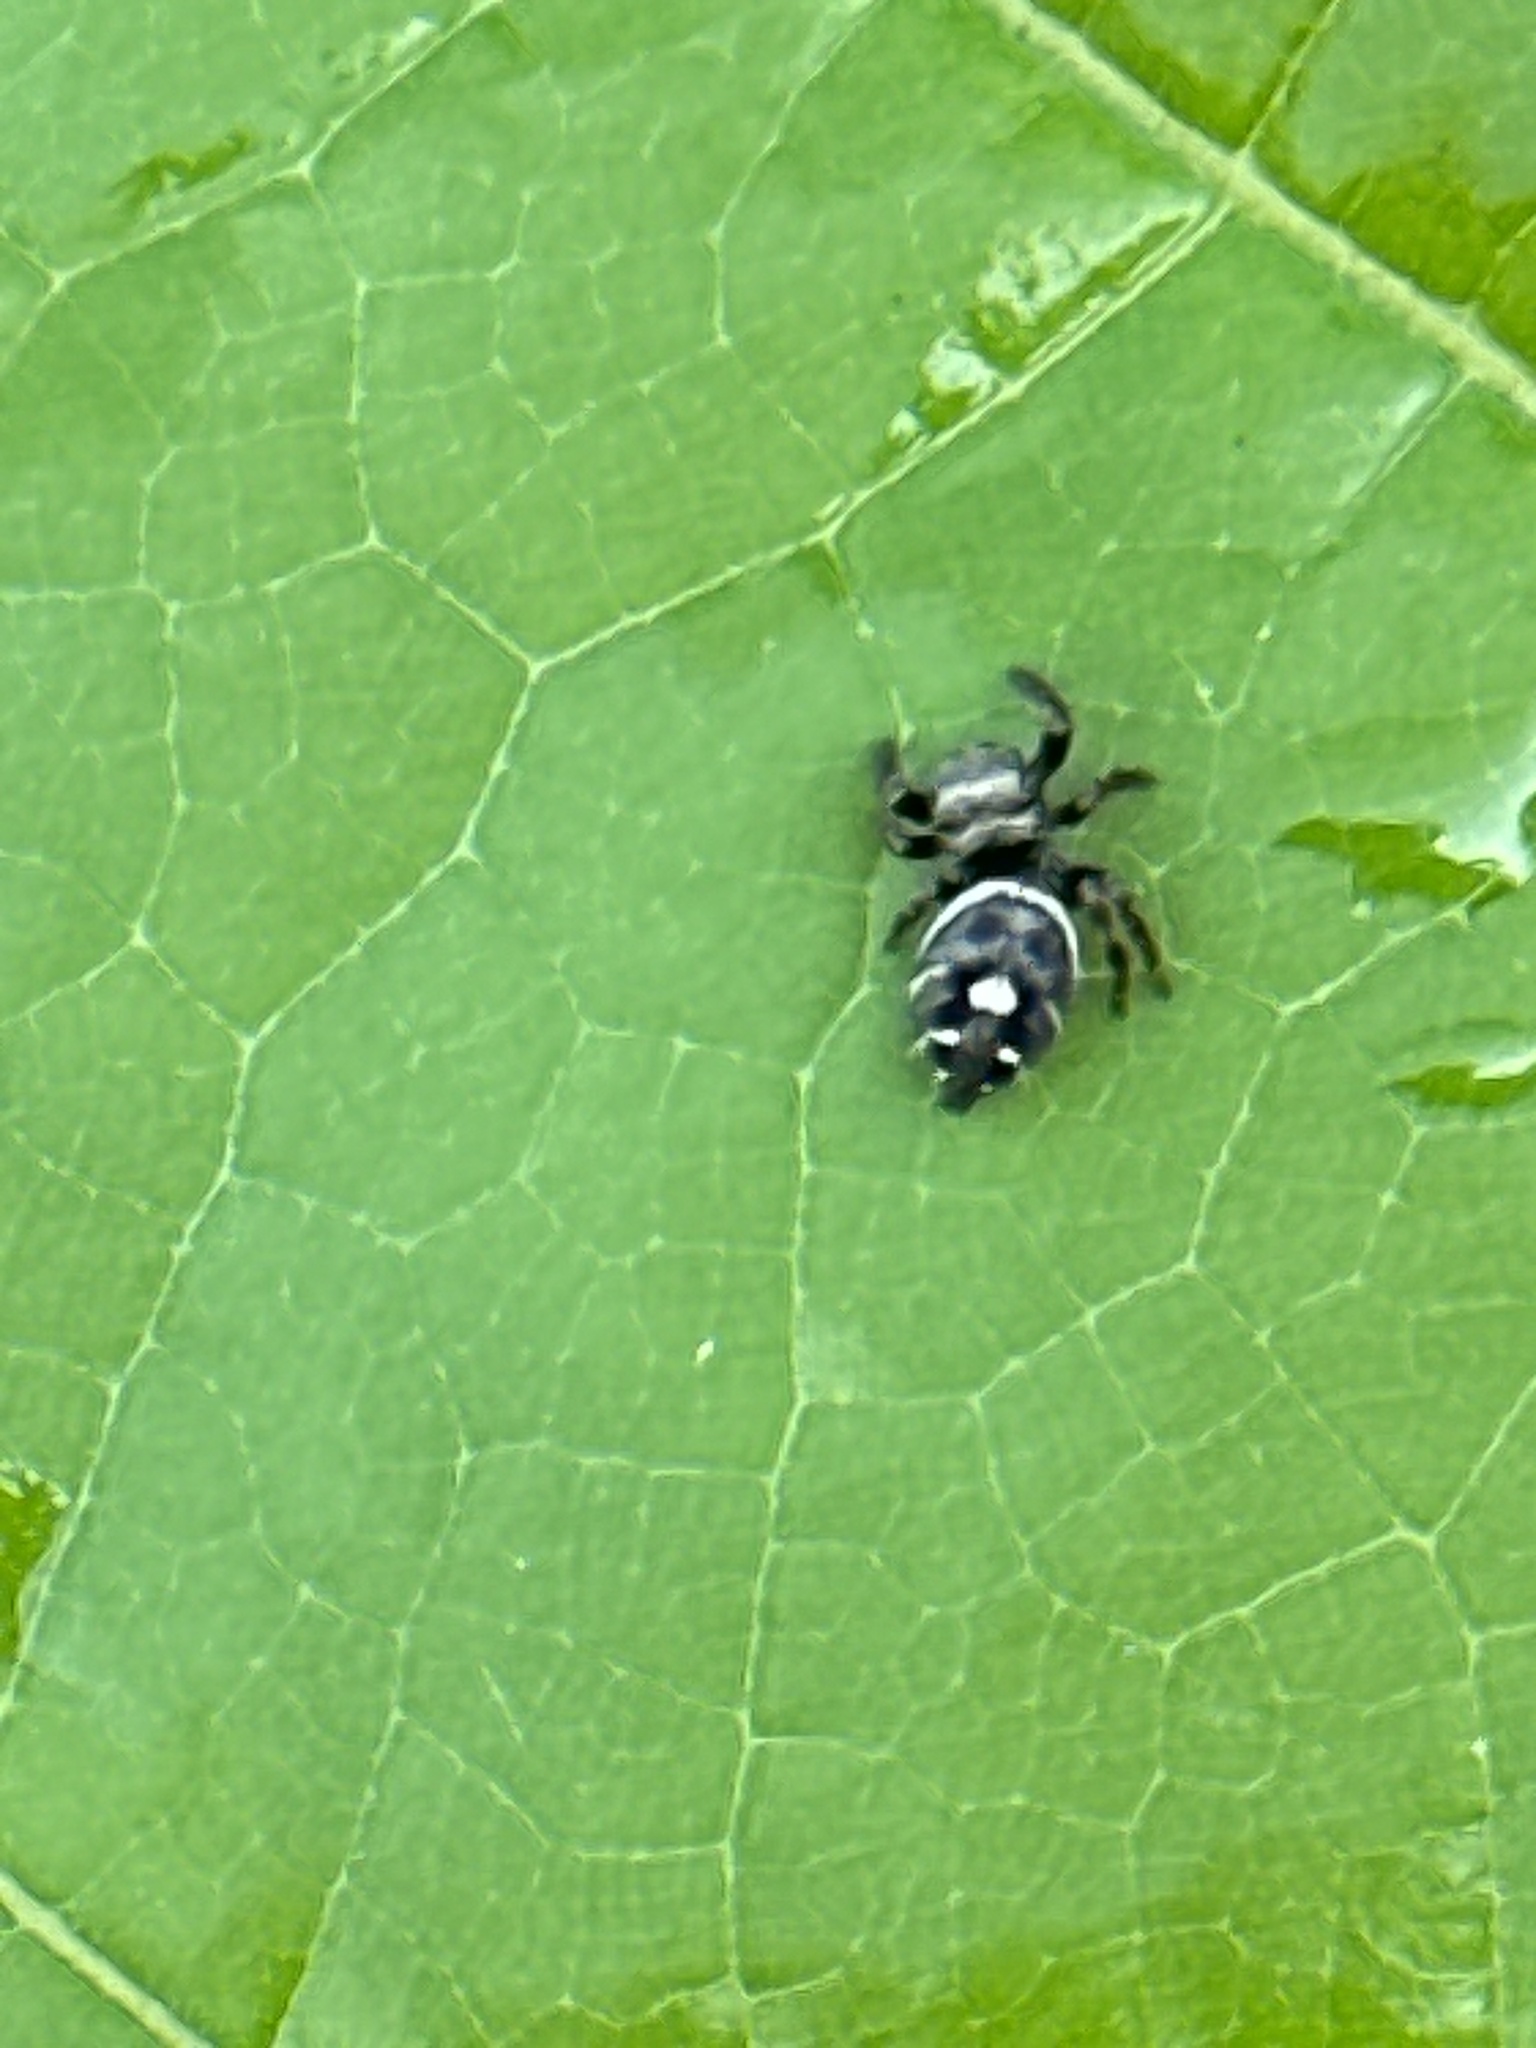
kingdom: Animalia
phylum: Arthropoda
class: Arachnida
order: Araneae
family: Salticidae
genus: Phidippus
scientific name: Phidippus audax
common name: Bold jumper
